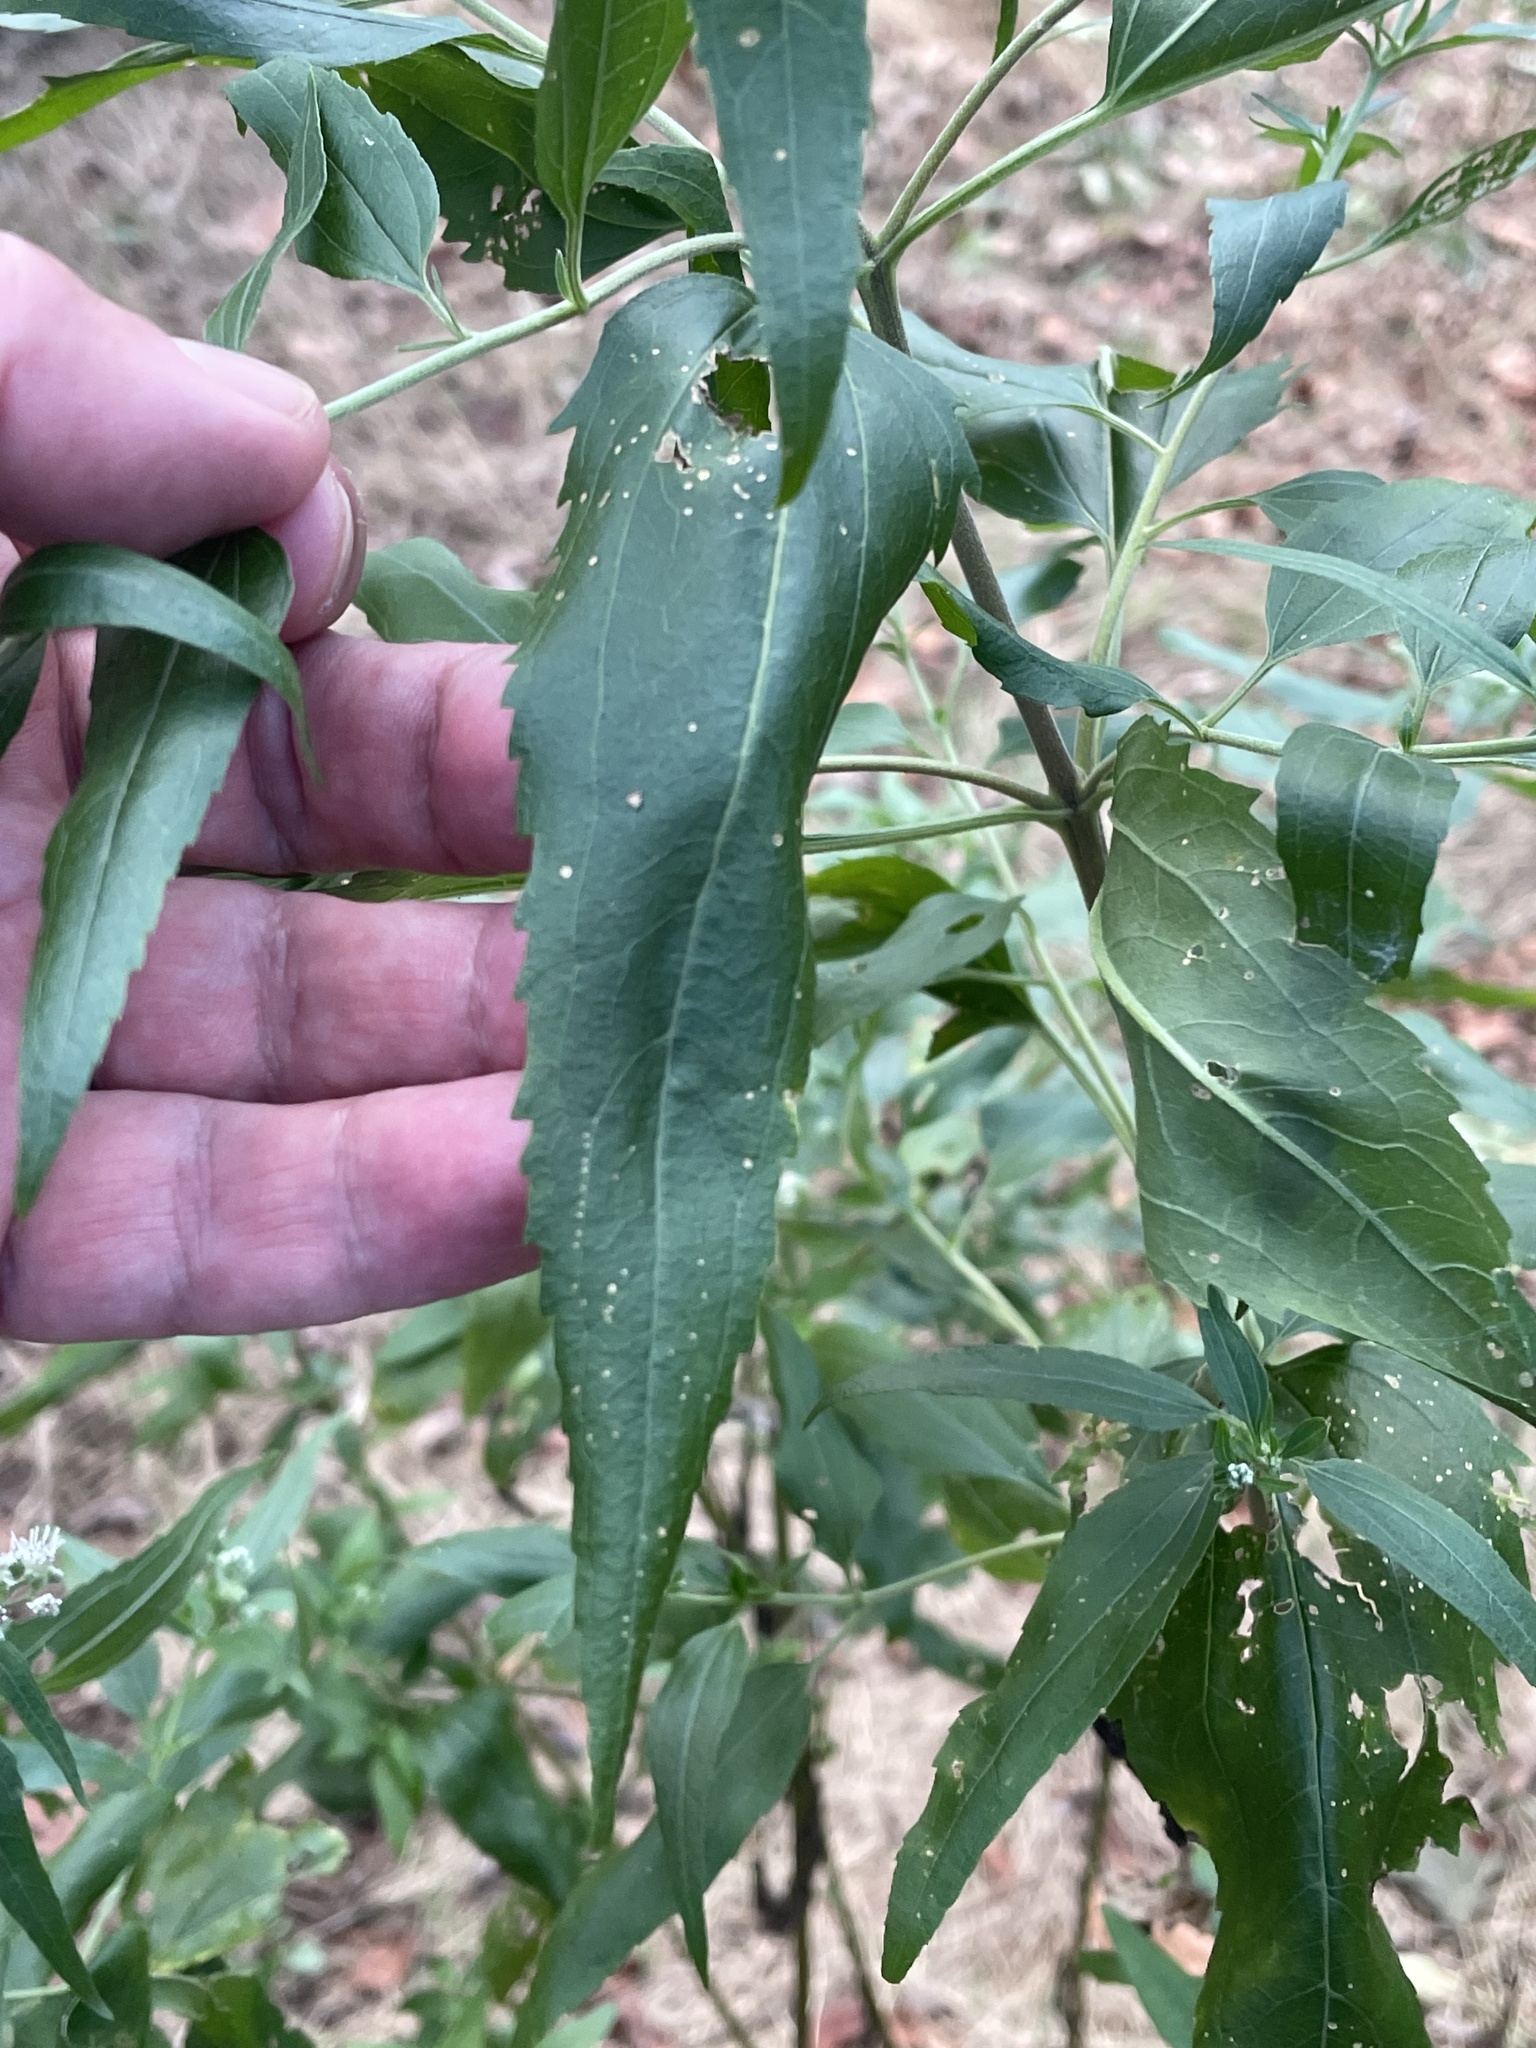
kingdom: Plantae
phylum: Tracheophyta
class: Magnoliopsida
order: Asterales
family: Asteraceae
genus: Eupatorium
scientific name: Eupatorium serotinum
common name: Late boneset
